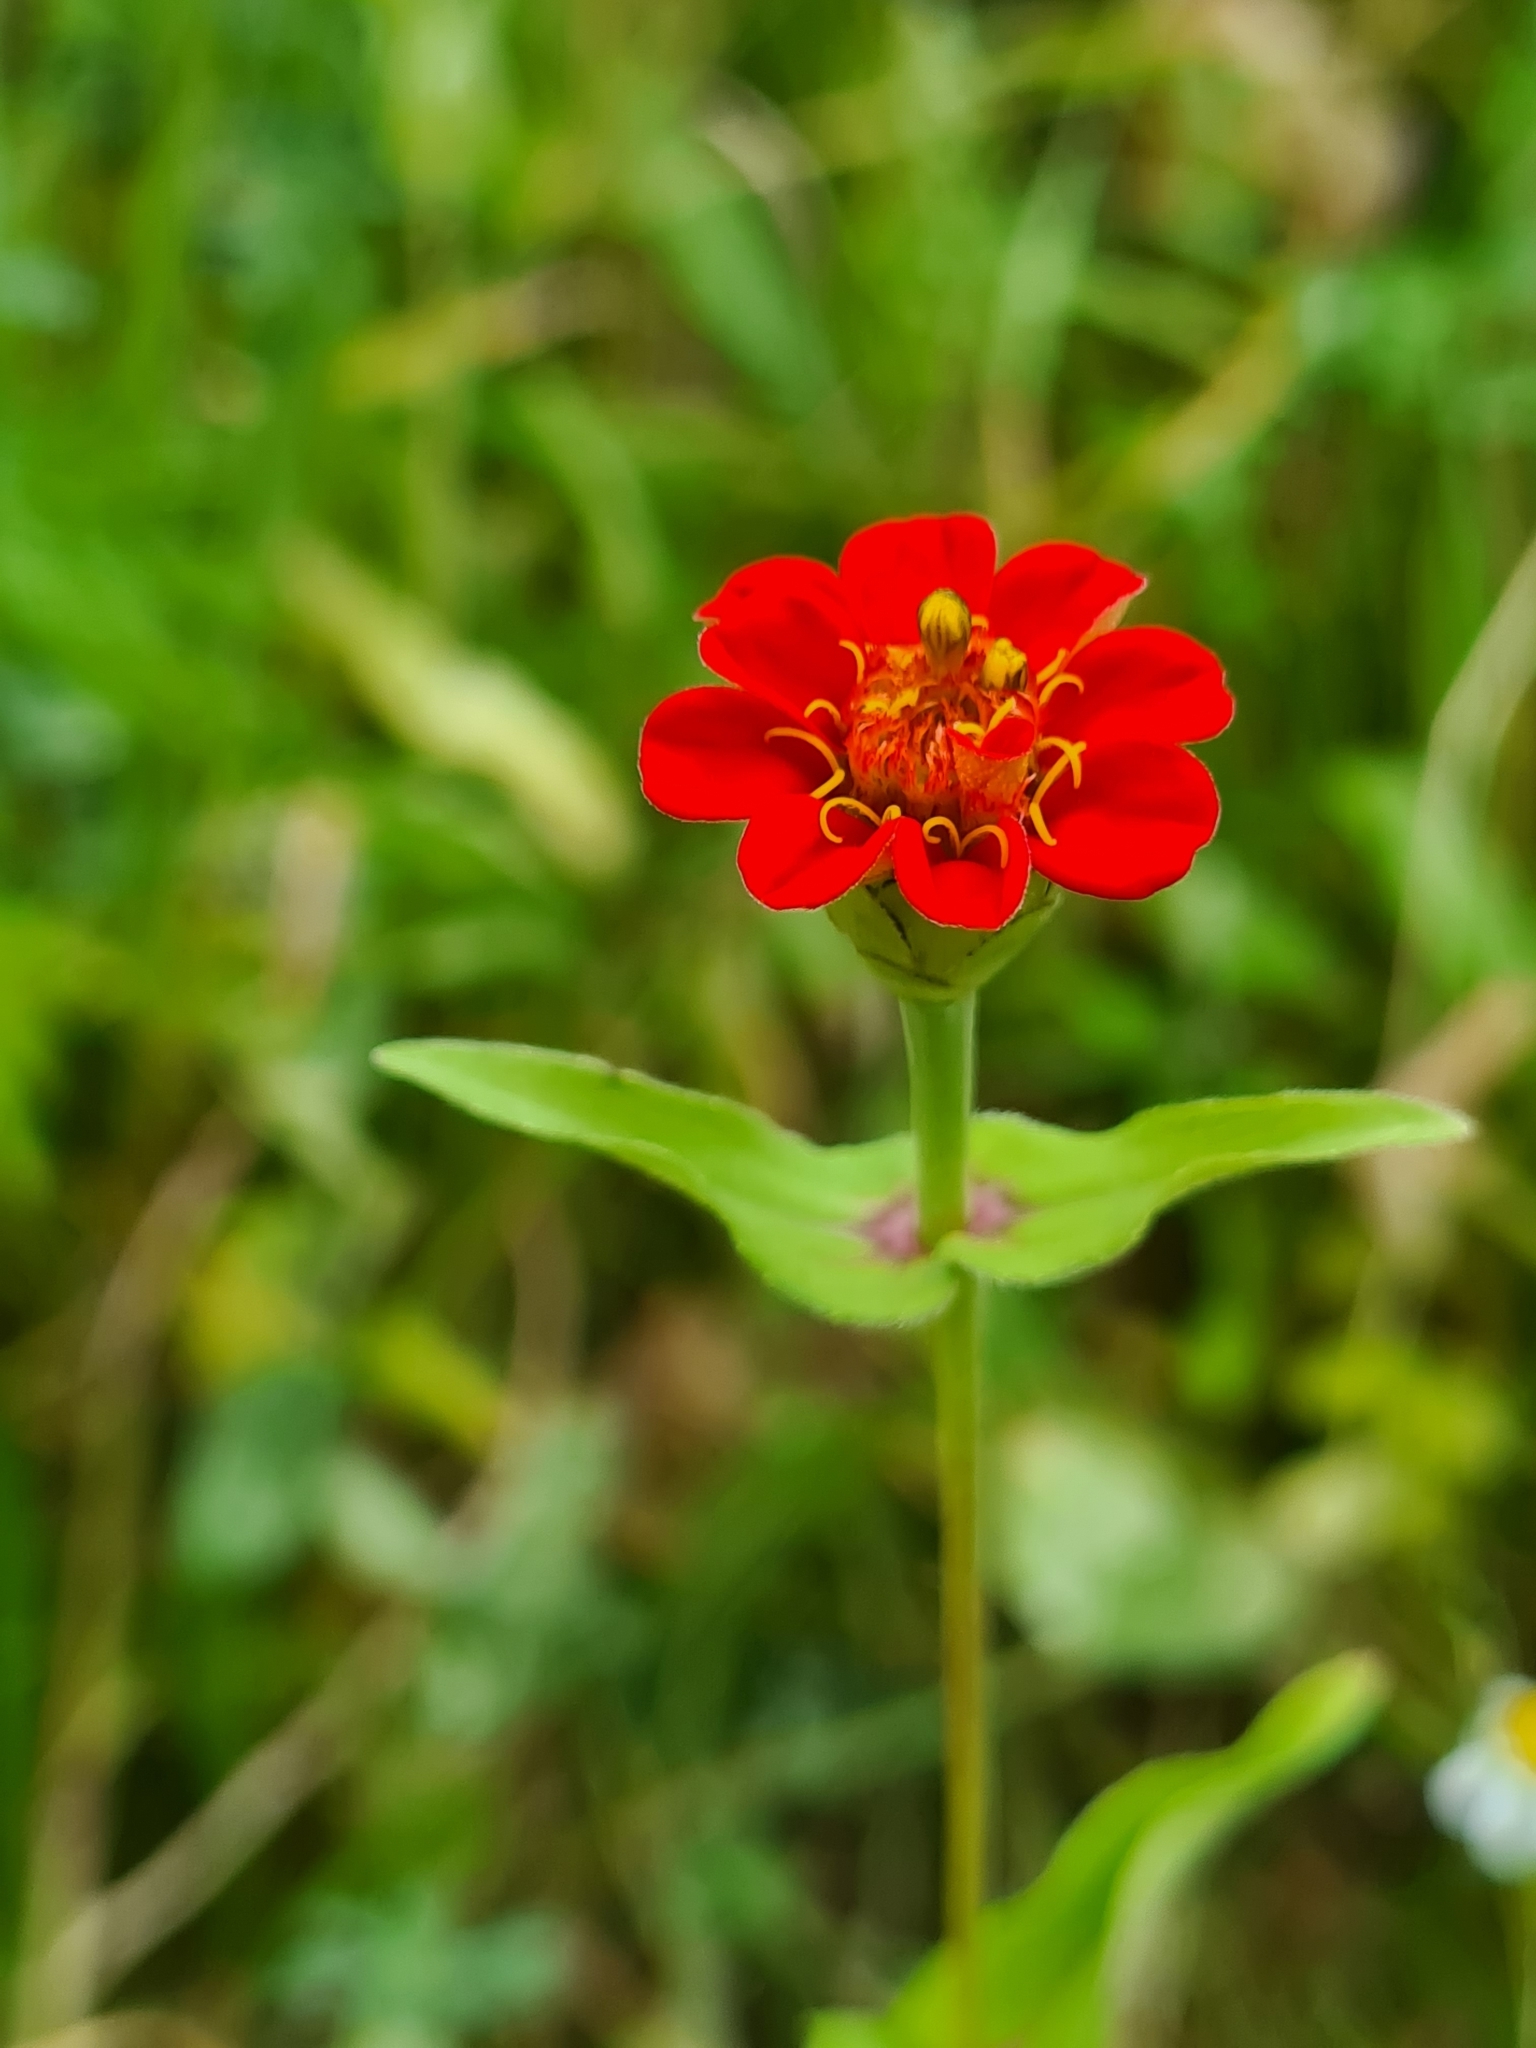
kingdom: Plantae
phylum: Tracheophyta
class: Magnoliopsida
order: Asterales
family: Asteraceae
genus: Zinnia
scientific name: Zinnia elegans
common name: Youth-and-age
